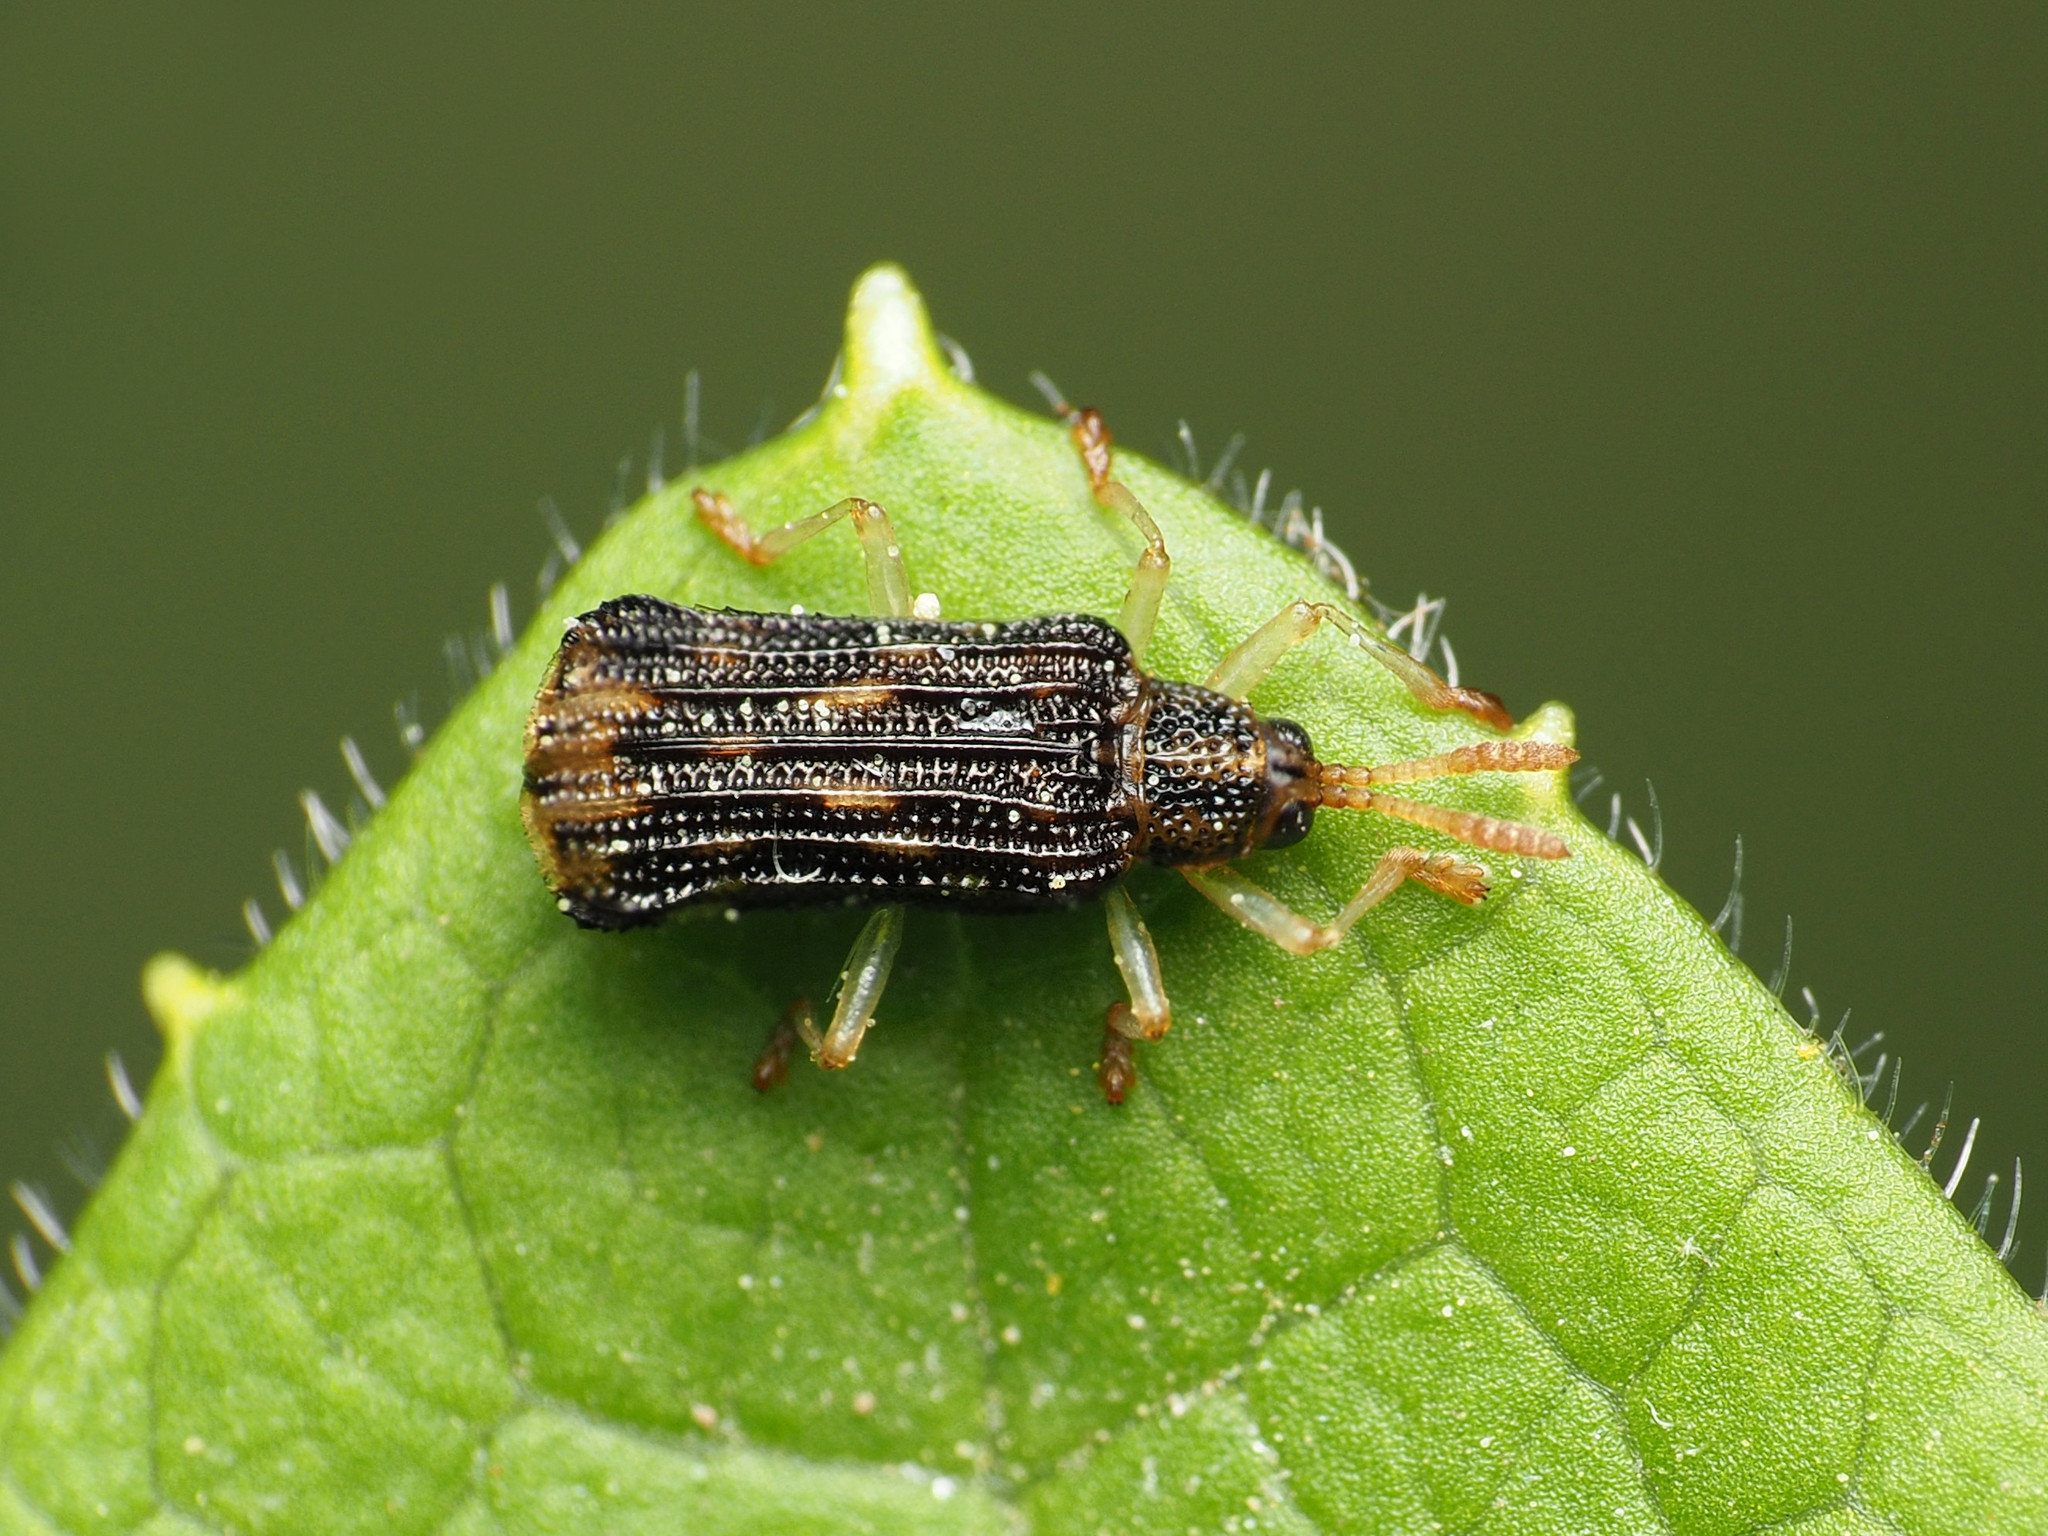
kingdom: Animalia
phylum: Arthropoda
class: Insecta
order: Coleoptera
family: Chrysomelidae
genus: Sumitrosis
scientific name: Sumitrosis rosea
